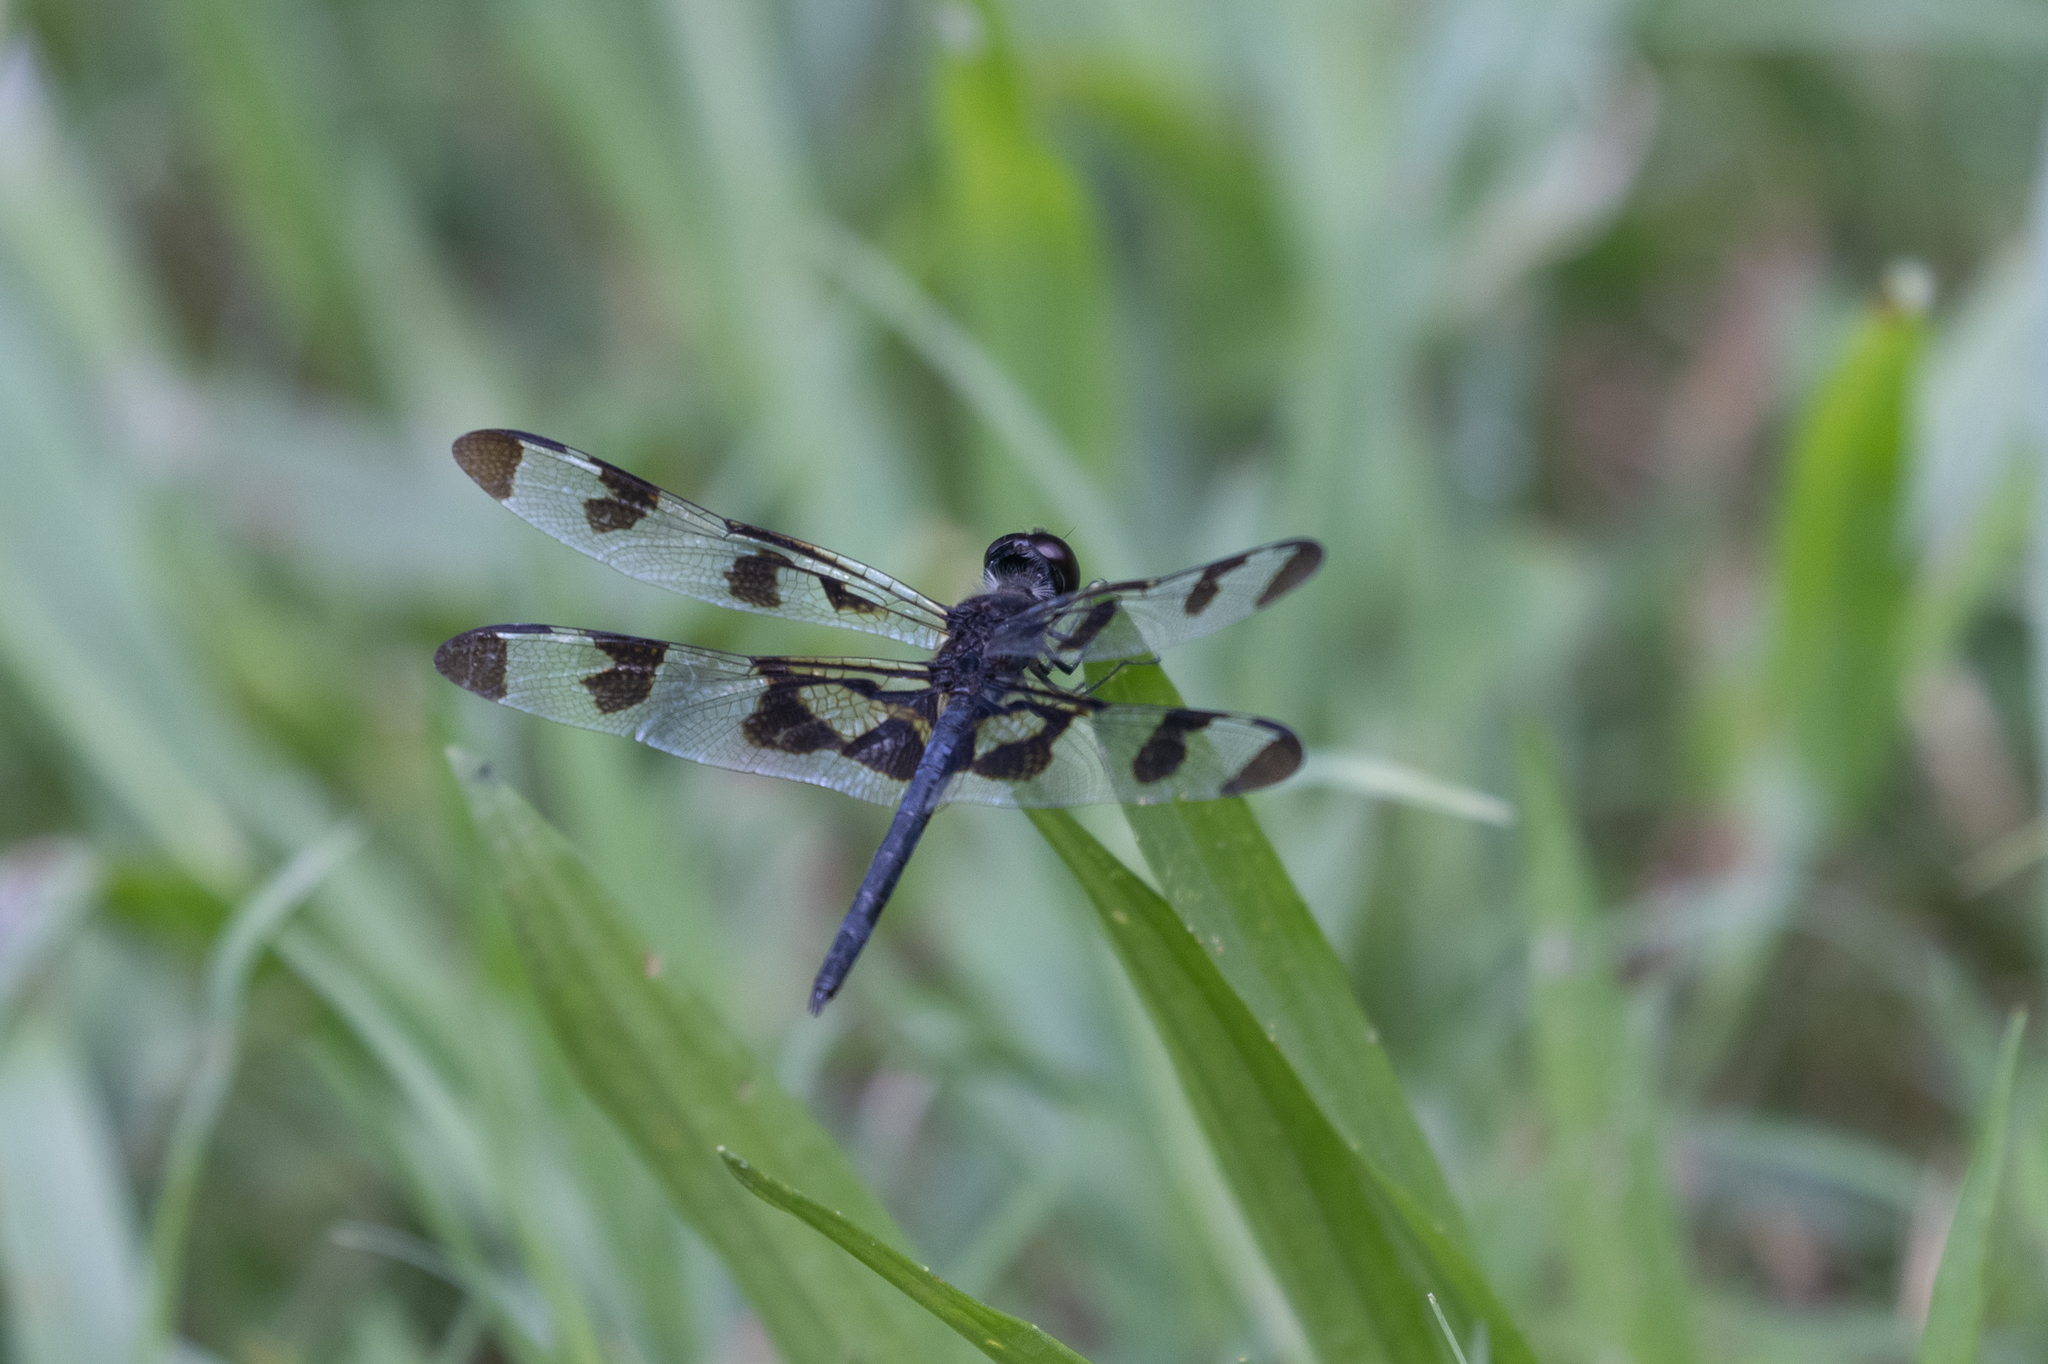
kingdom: Animalia
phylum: Arthropoda
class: Insecta
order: Odonata
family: Libellulidae
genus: Celithemis
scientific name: Celithemis fasciata
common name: Banded pennant
